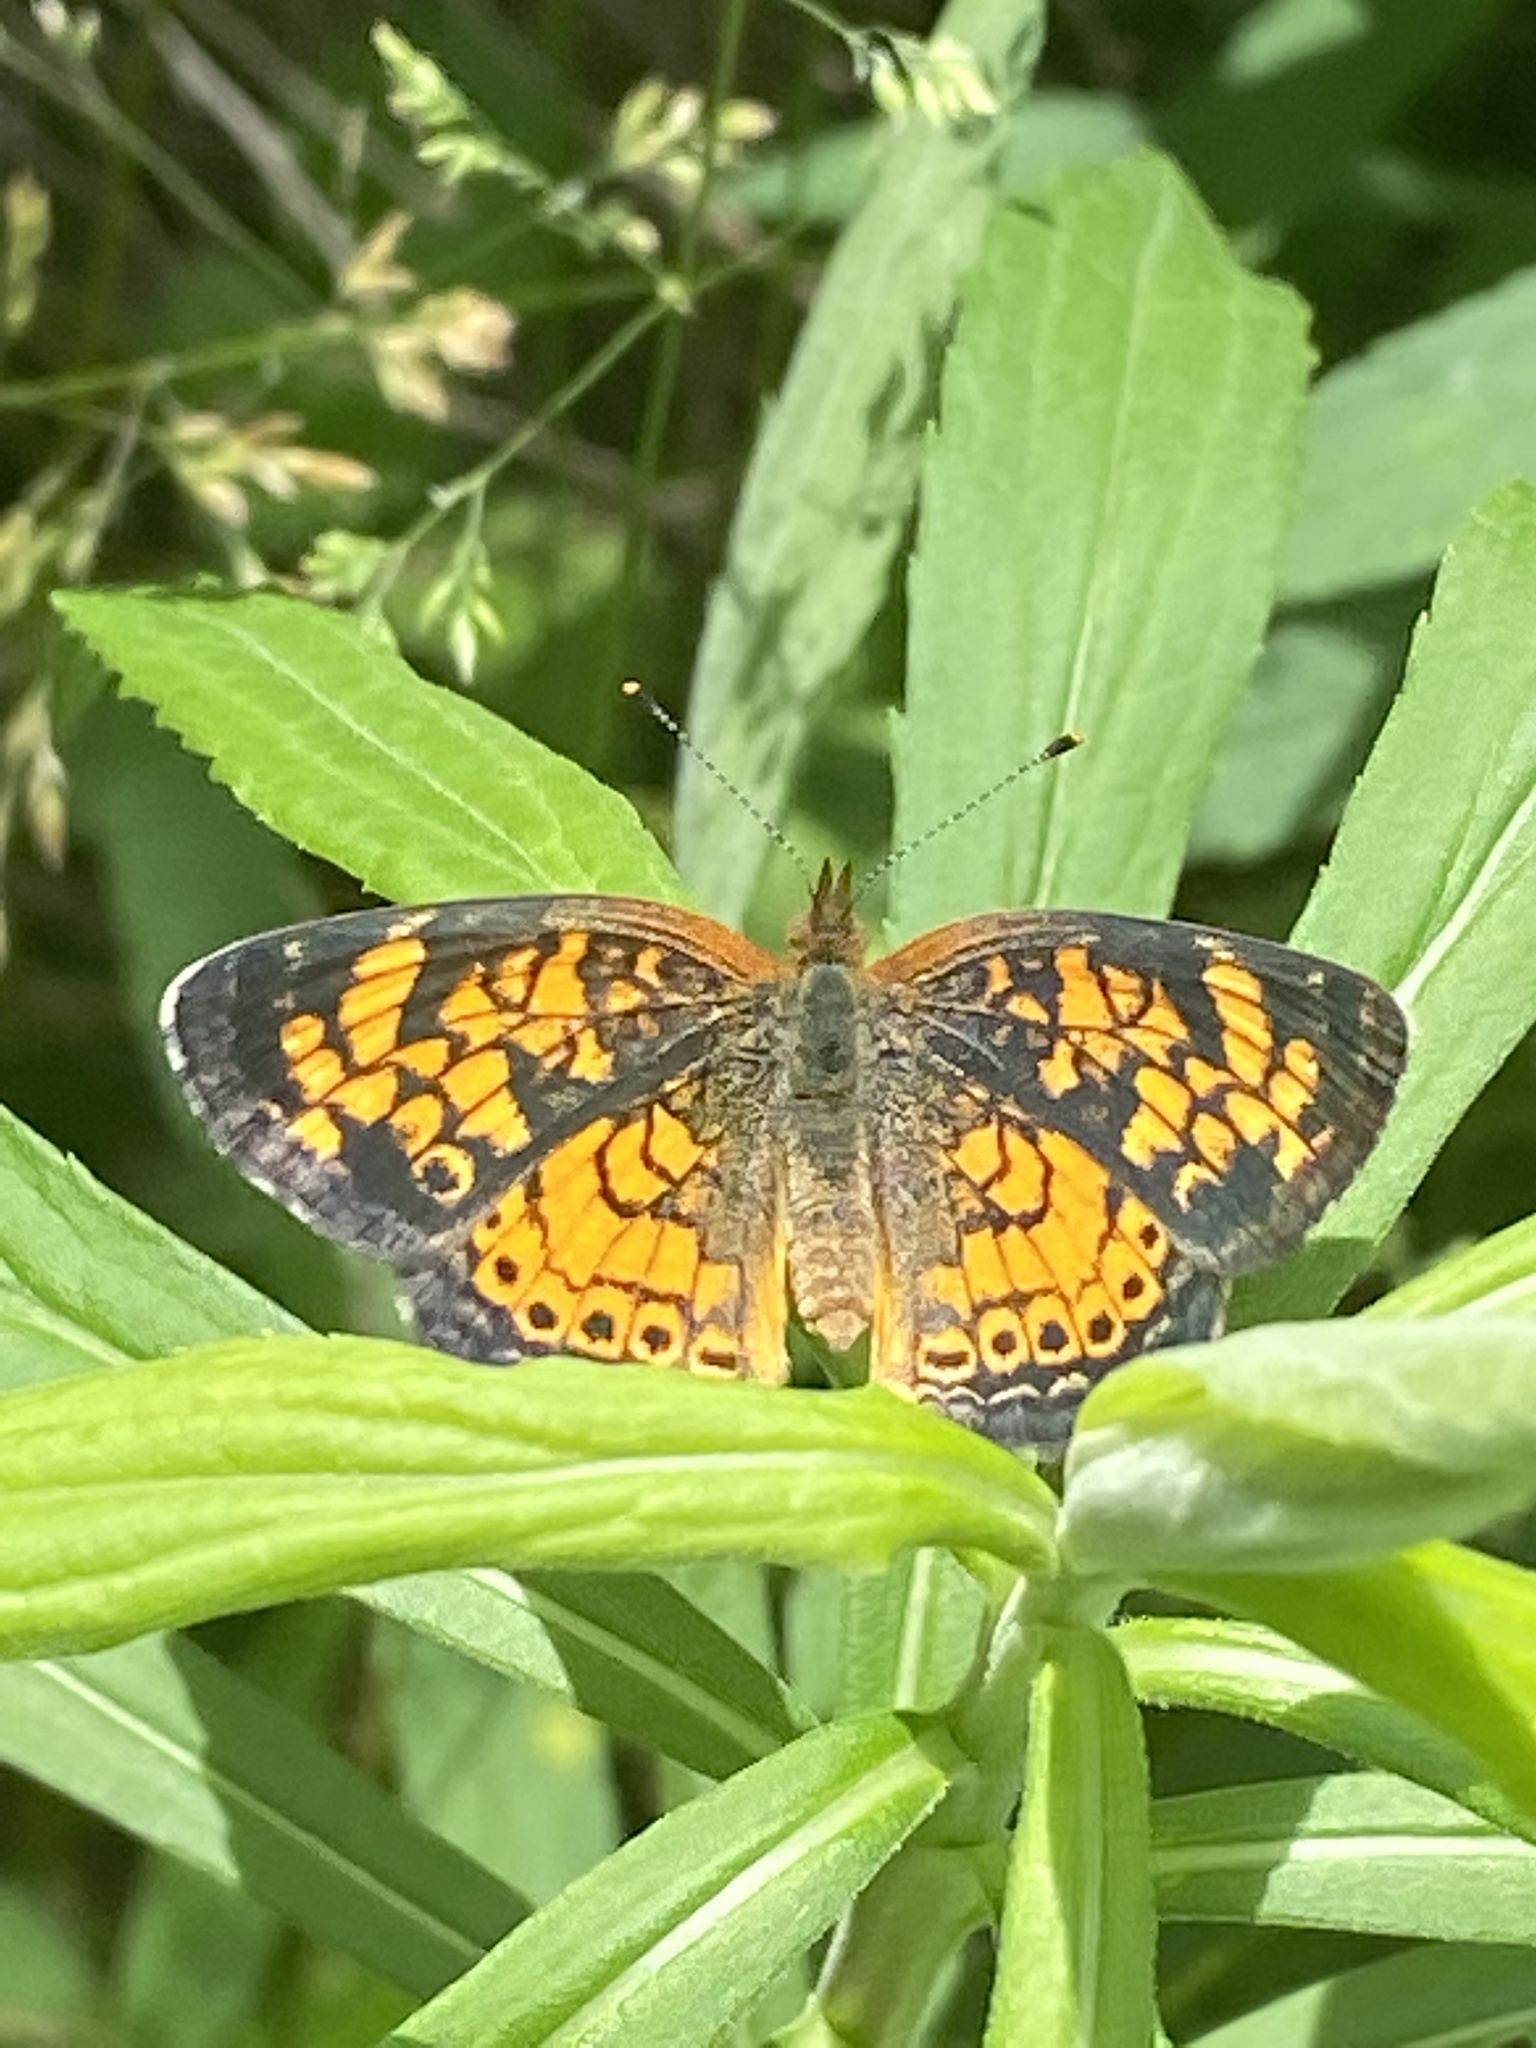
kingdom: Animalia
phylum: Arthropoda
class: Insecta
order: Lepidoptera
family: Nymphalidae
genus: Phyciodes
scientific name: Phyciodes tharos
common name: Pearl crescent
